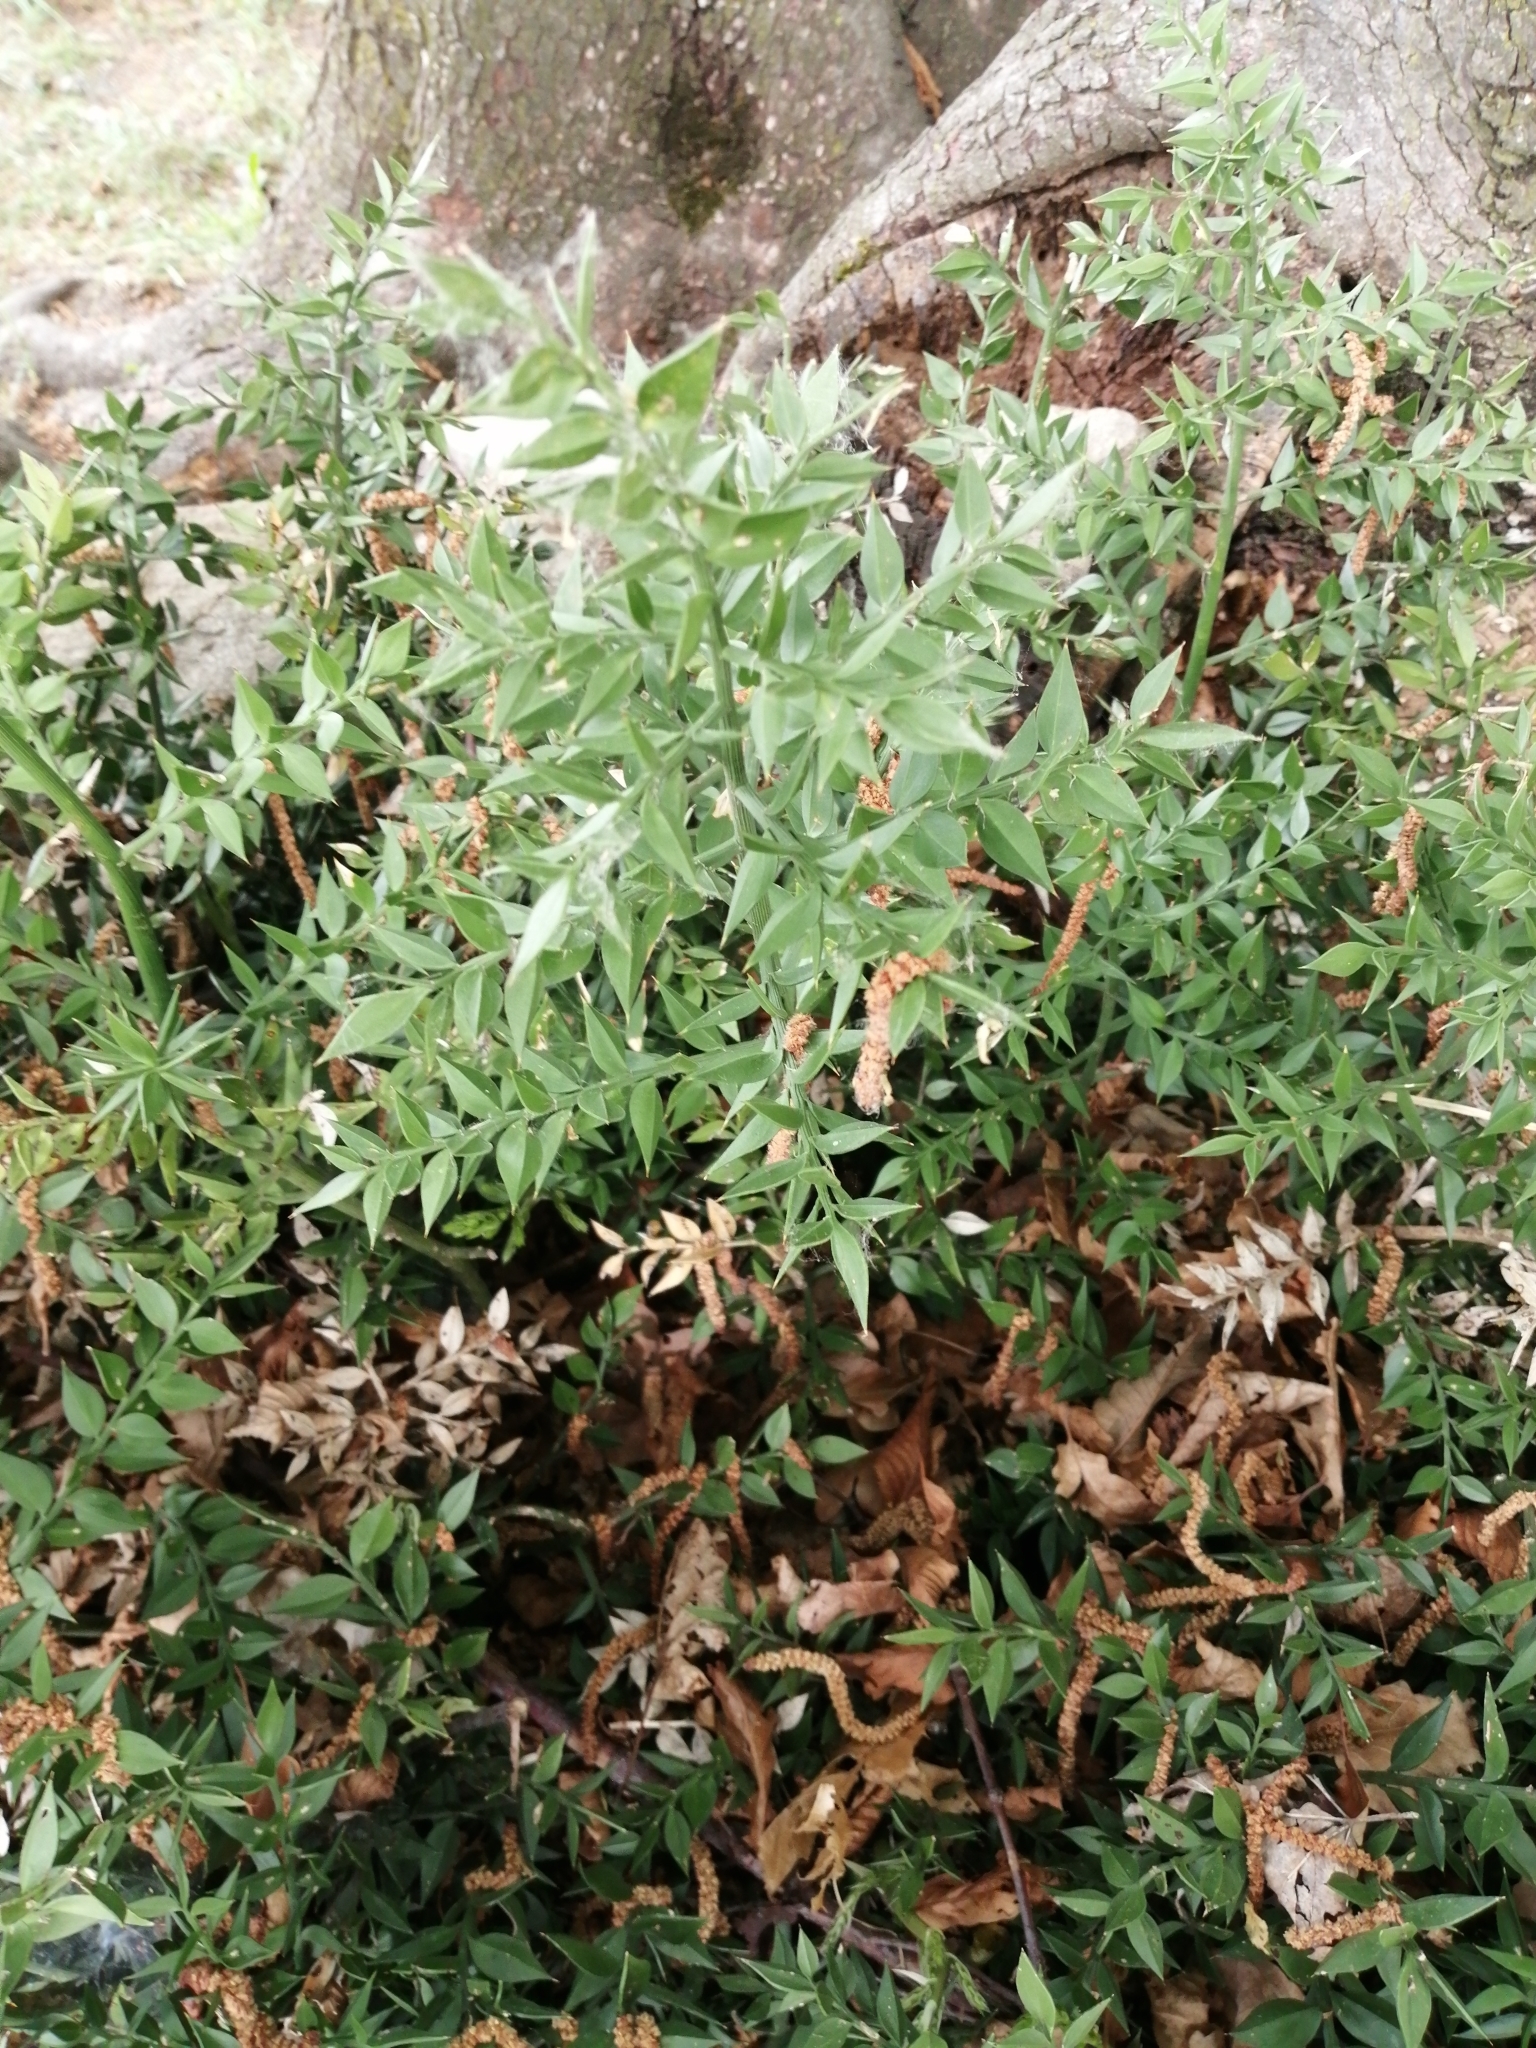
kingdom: Plantae
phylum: Tracheophyta
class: Liliopsida
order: Asparagales
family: Asparagaceae
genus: Ruscus
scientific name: Ruscus aculeatus
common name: Butcher's-broom
